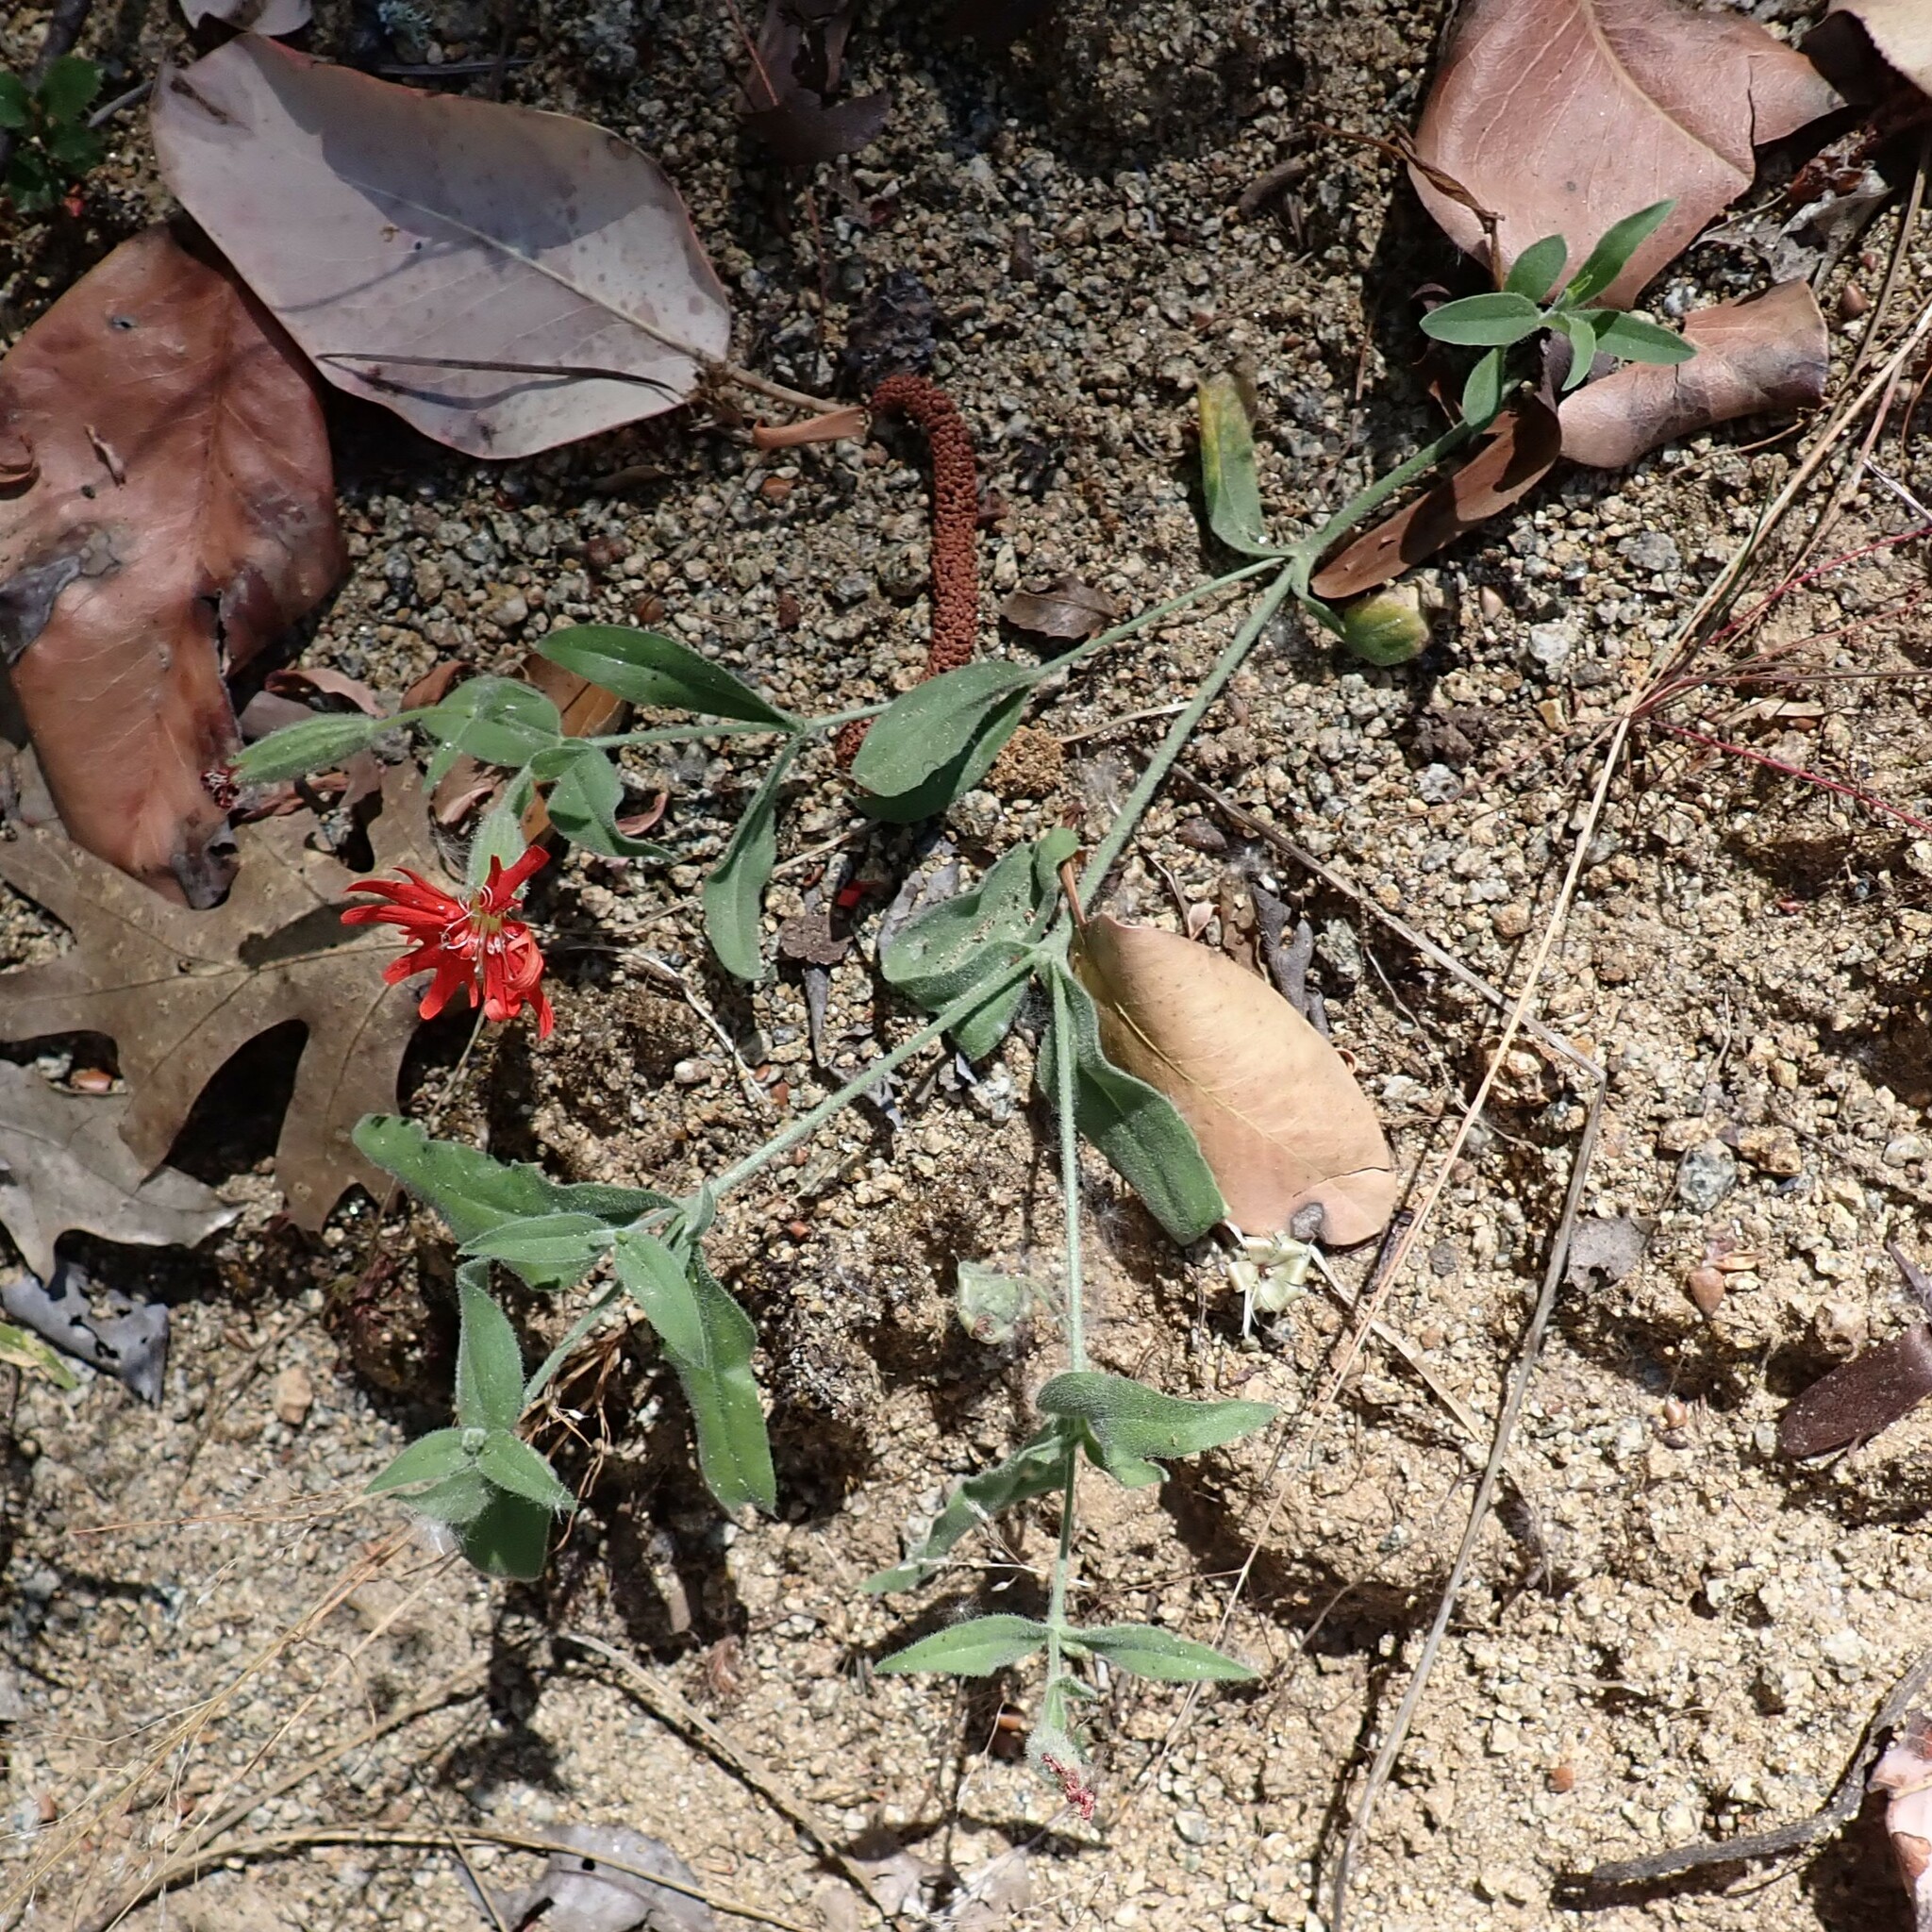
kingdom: Plantae
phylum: Tracheophyta
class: Magnoliopsida
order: Caryophyllales
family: Caryophyllaceae
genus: Silene
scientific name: Silene laciniata
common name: Indian-pink
